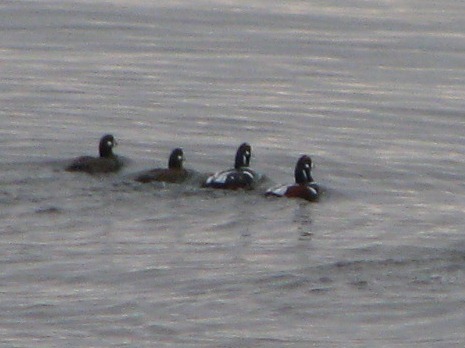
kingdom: Animalia
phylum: Chordata
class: Aves
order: Anseriformes
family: Anatidae
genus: Histrionicus
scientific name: Histrionicus histrionicus
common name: Harlequin duck
